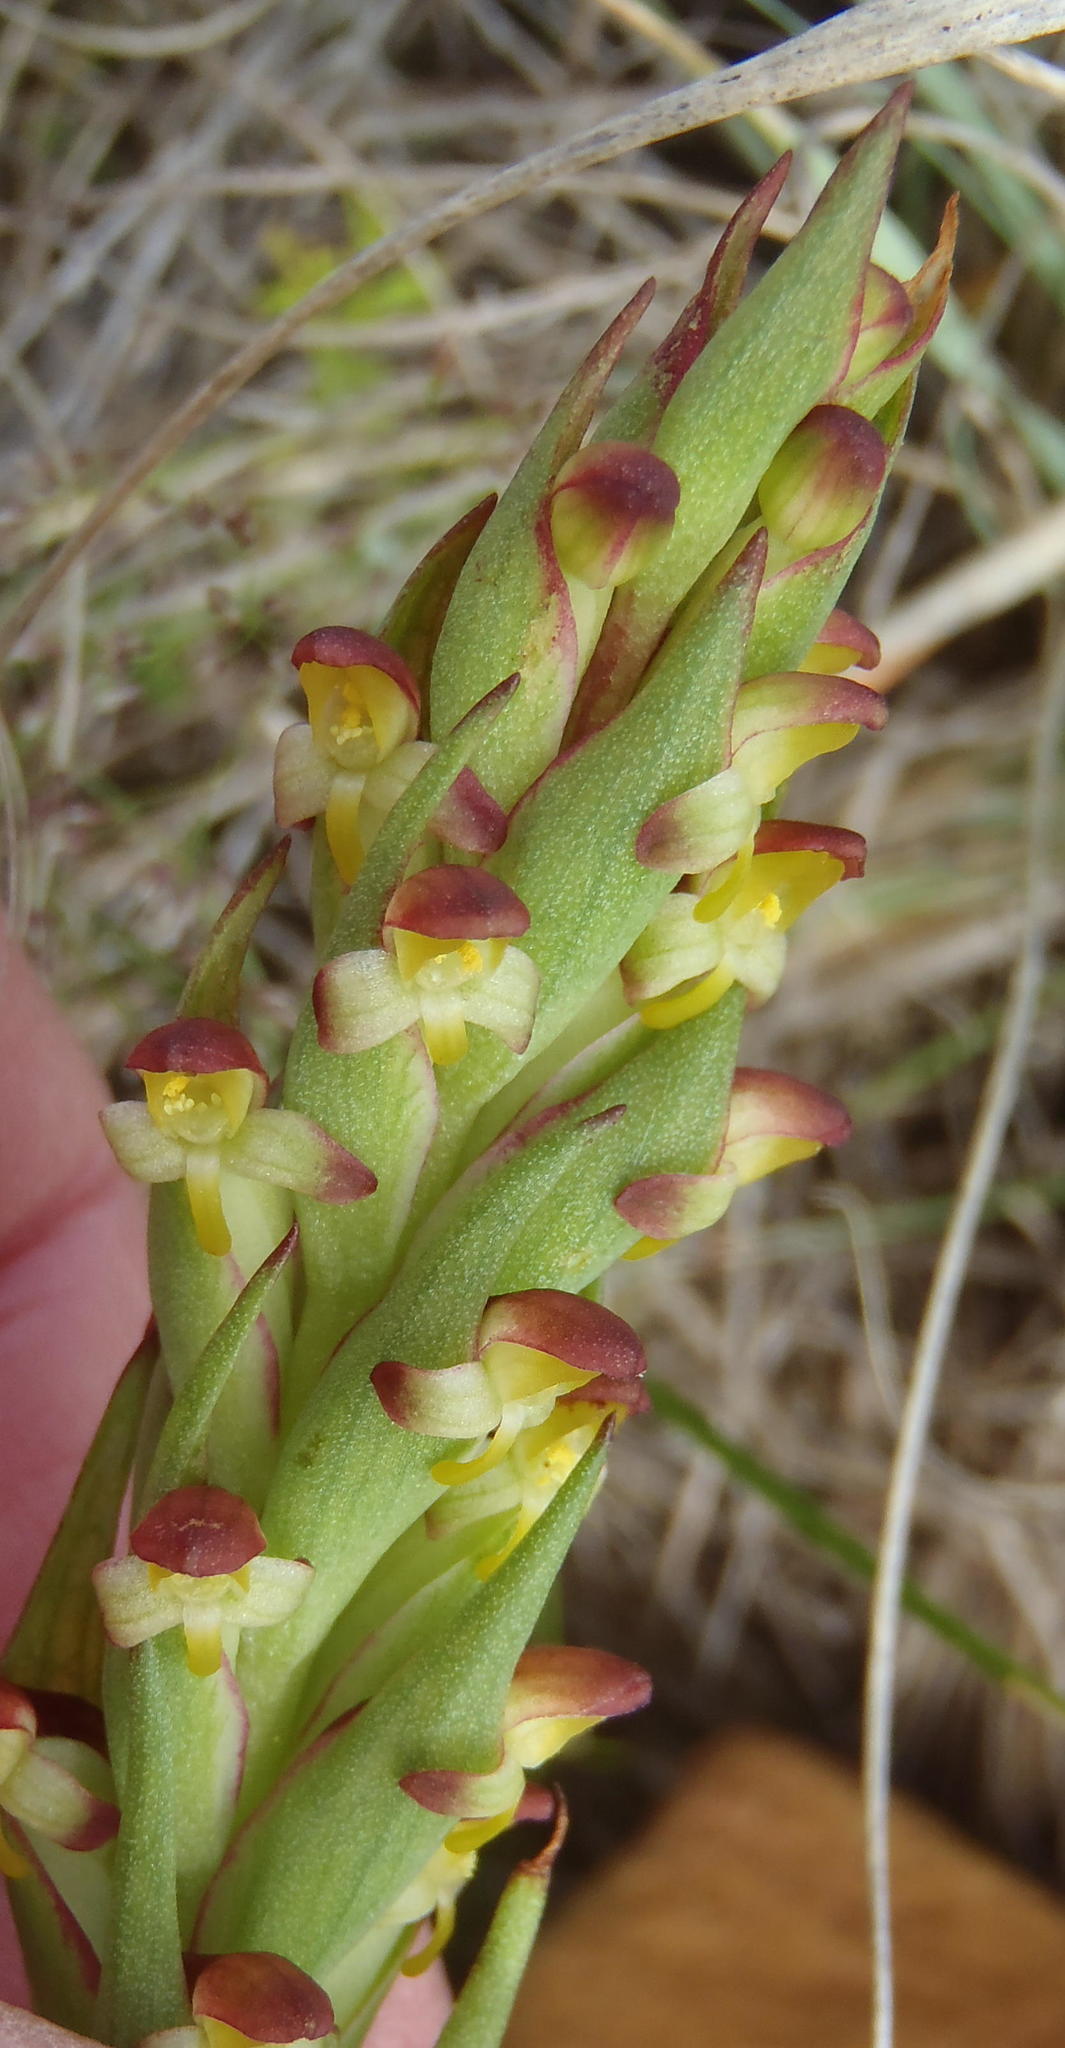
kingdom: Plantae
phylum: Tracheophyta
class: Liliopsida
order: Asparagales
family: Orchidaceae
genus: Disa
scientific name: Disa bracteata
